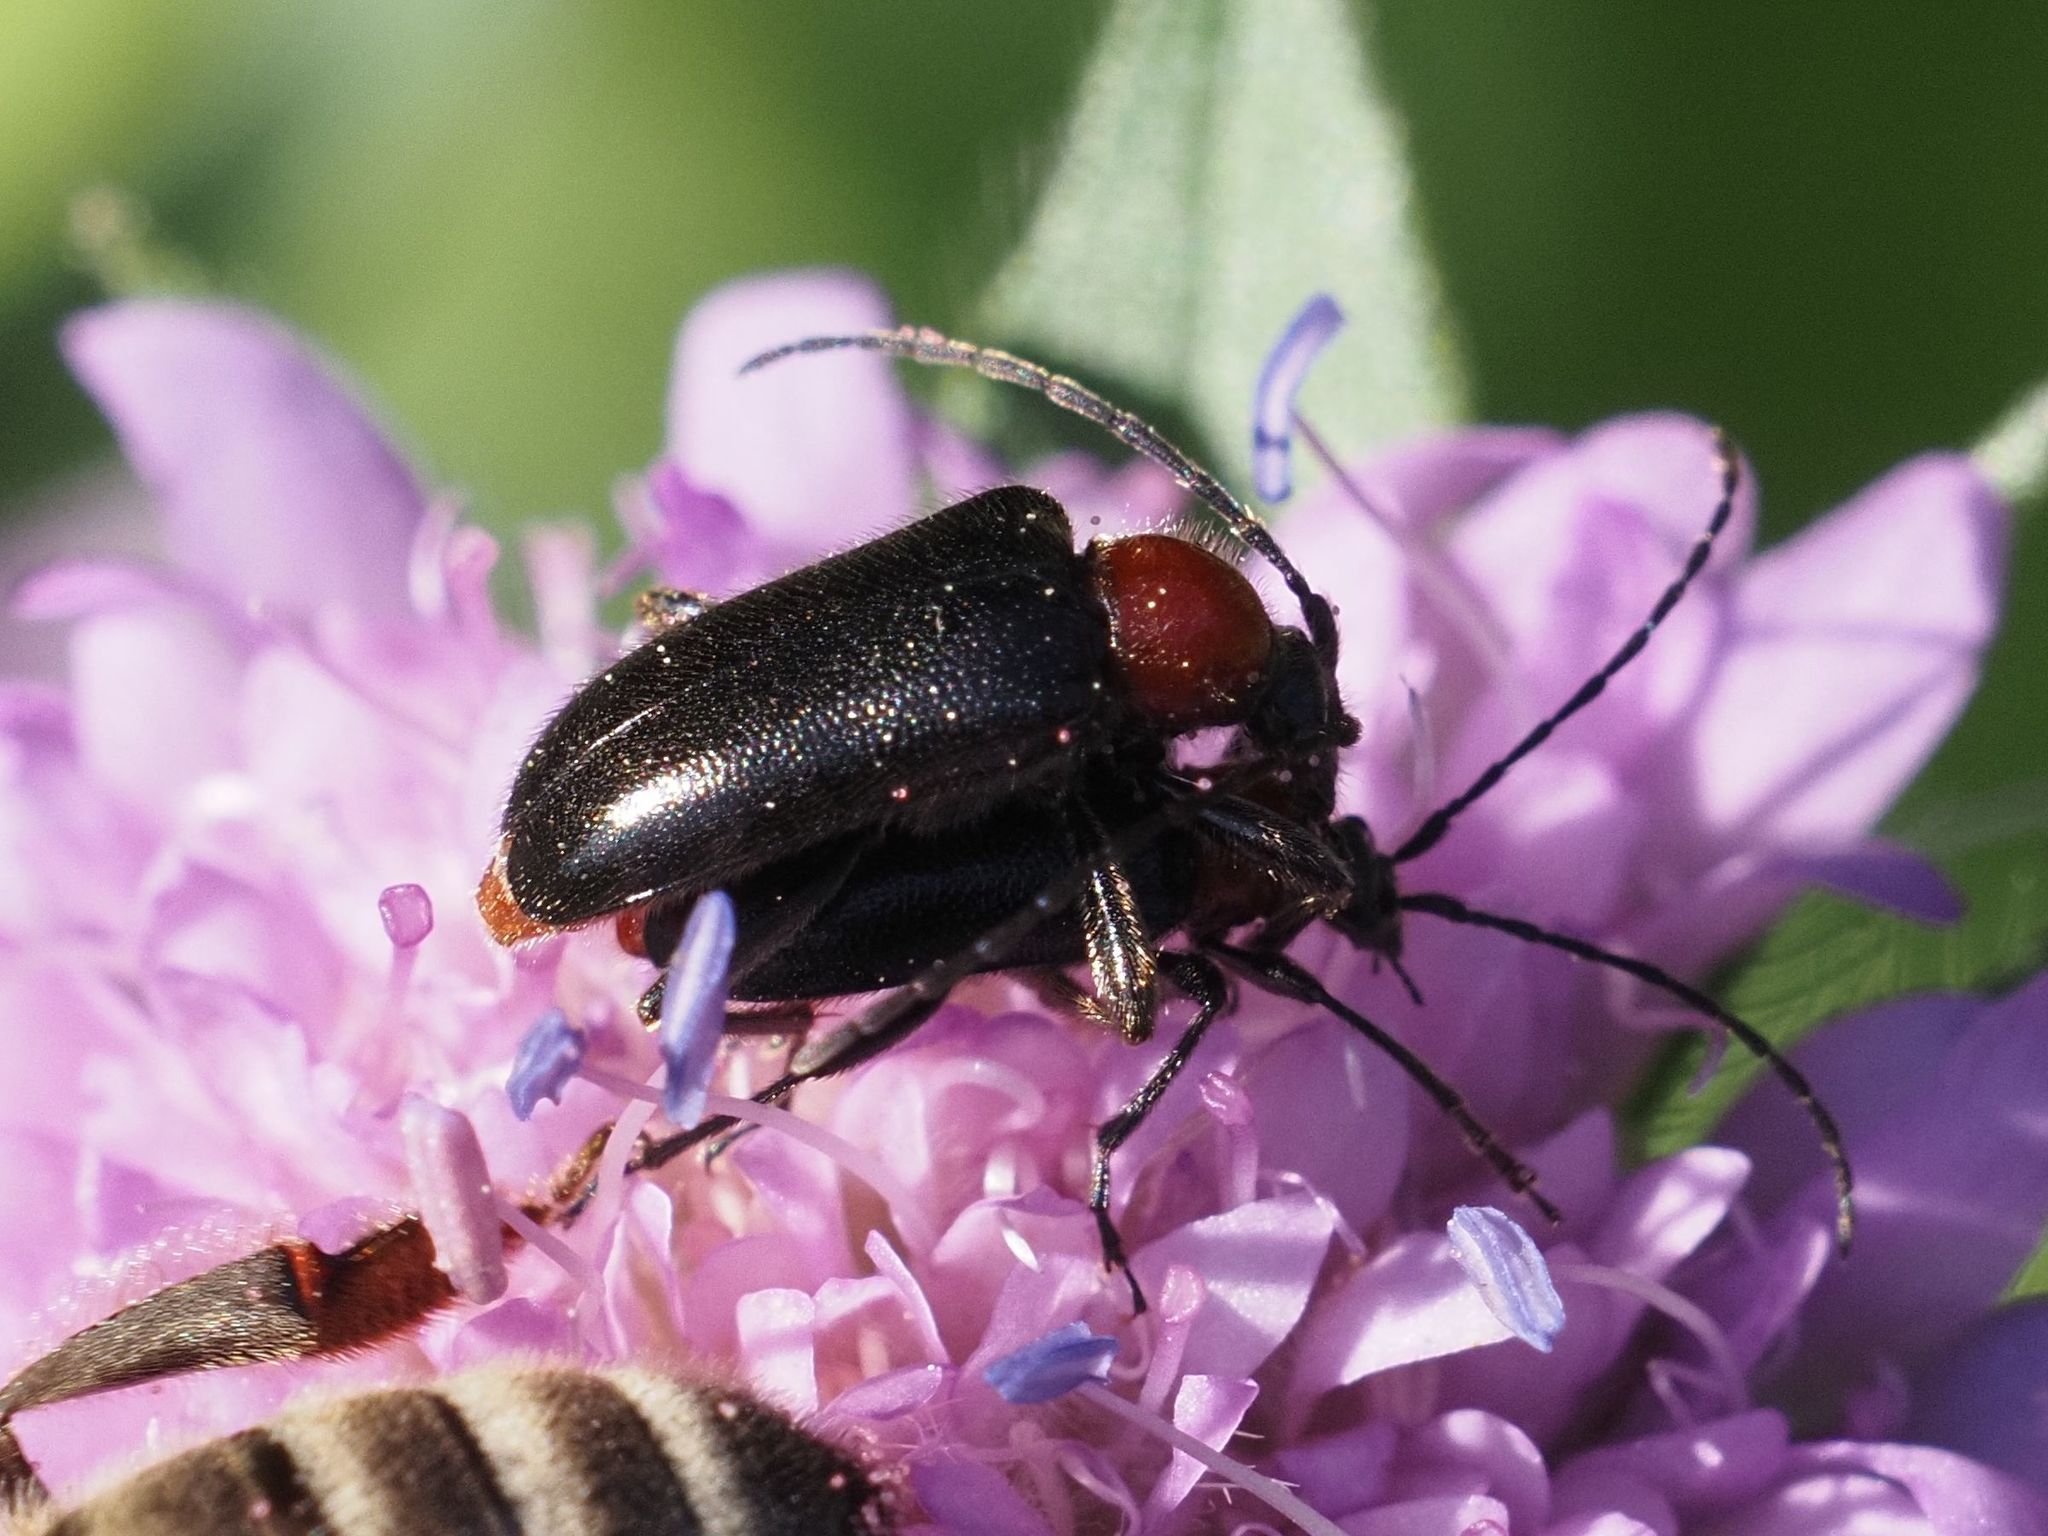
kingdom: Animalia
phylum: Arthropoda
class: Insecta
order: Coleoptera
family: Cerambycidae
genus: Dinoptera
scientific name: Dinoptera collaris
